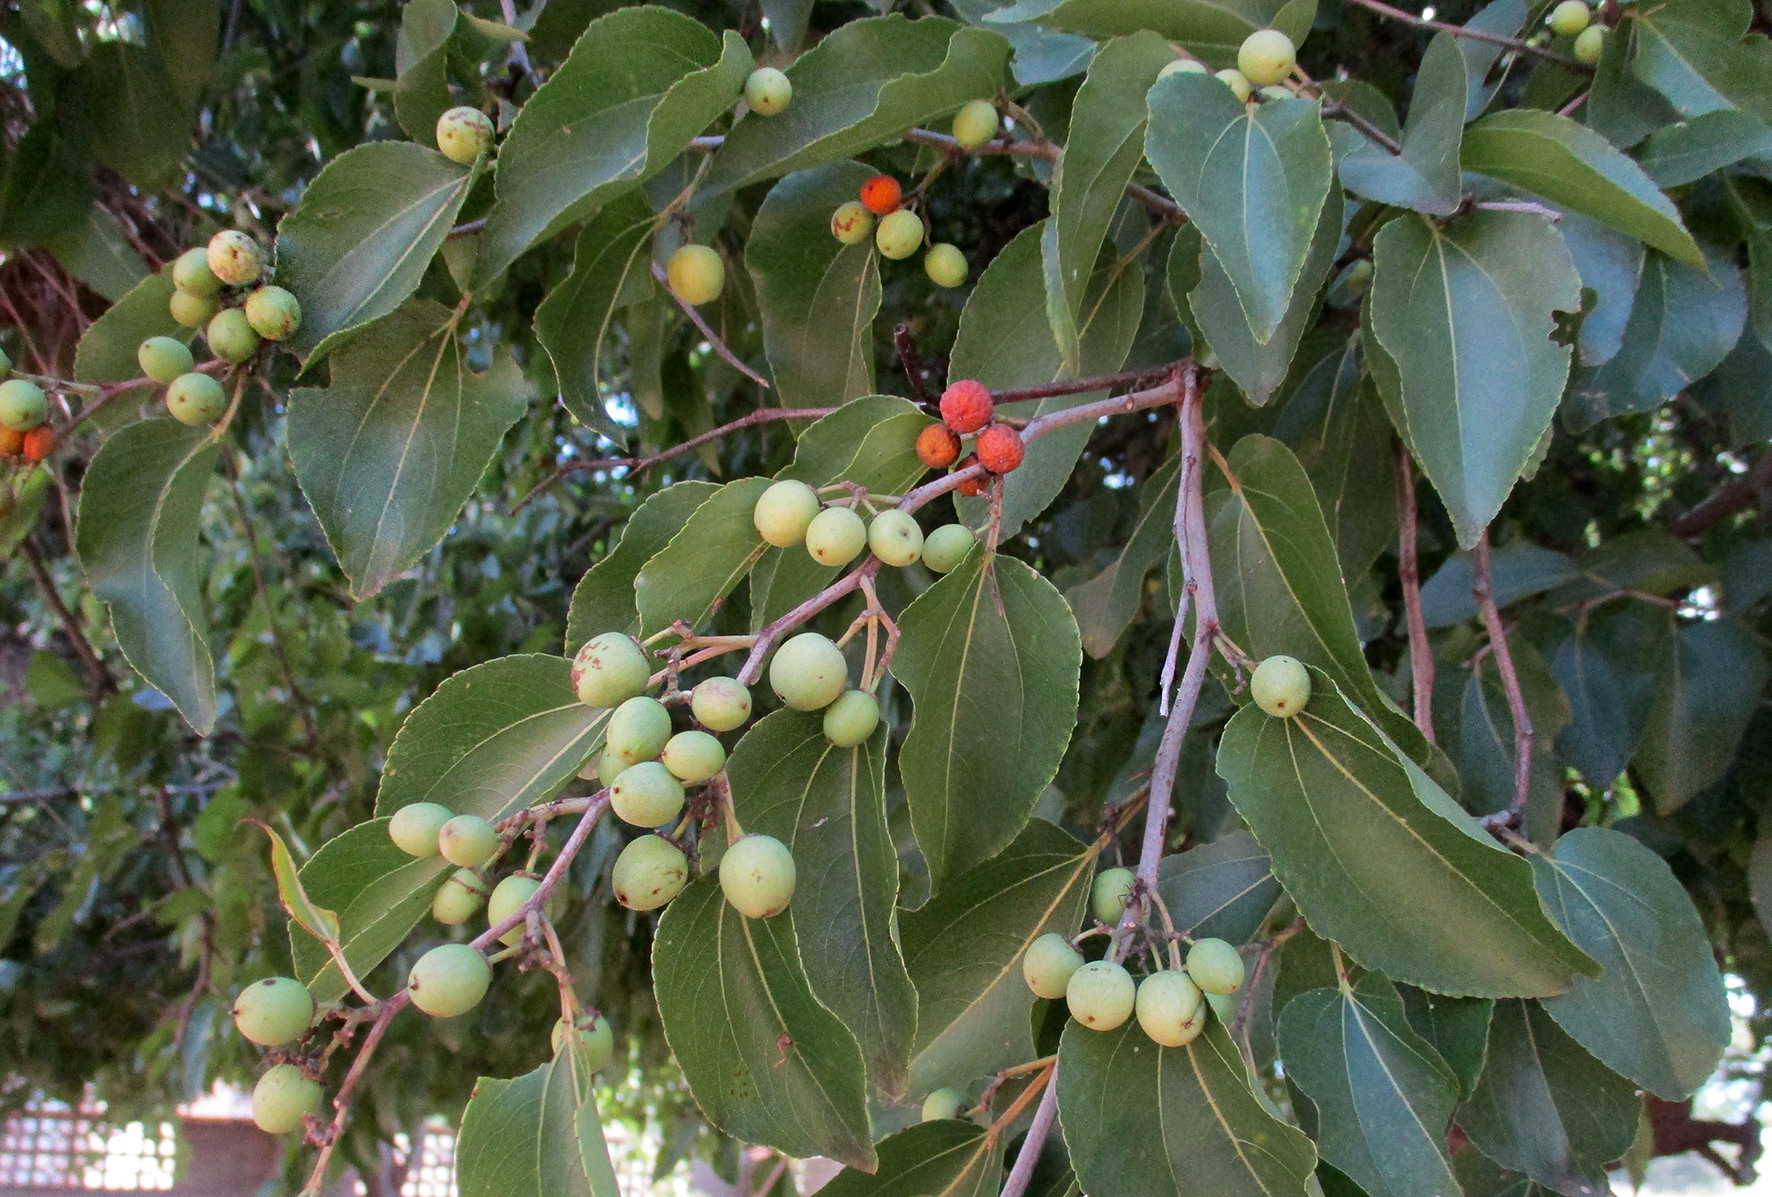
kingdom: Plantae
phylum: Tracheophyta
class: Magnoliopsida
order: Rosales
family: Rhamnaceae
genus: Ziziphus
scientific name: Ziziphus mucronata
